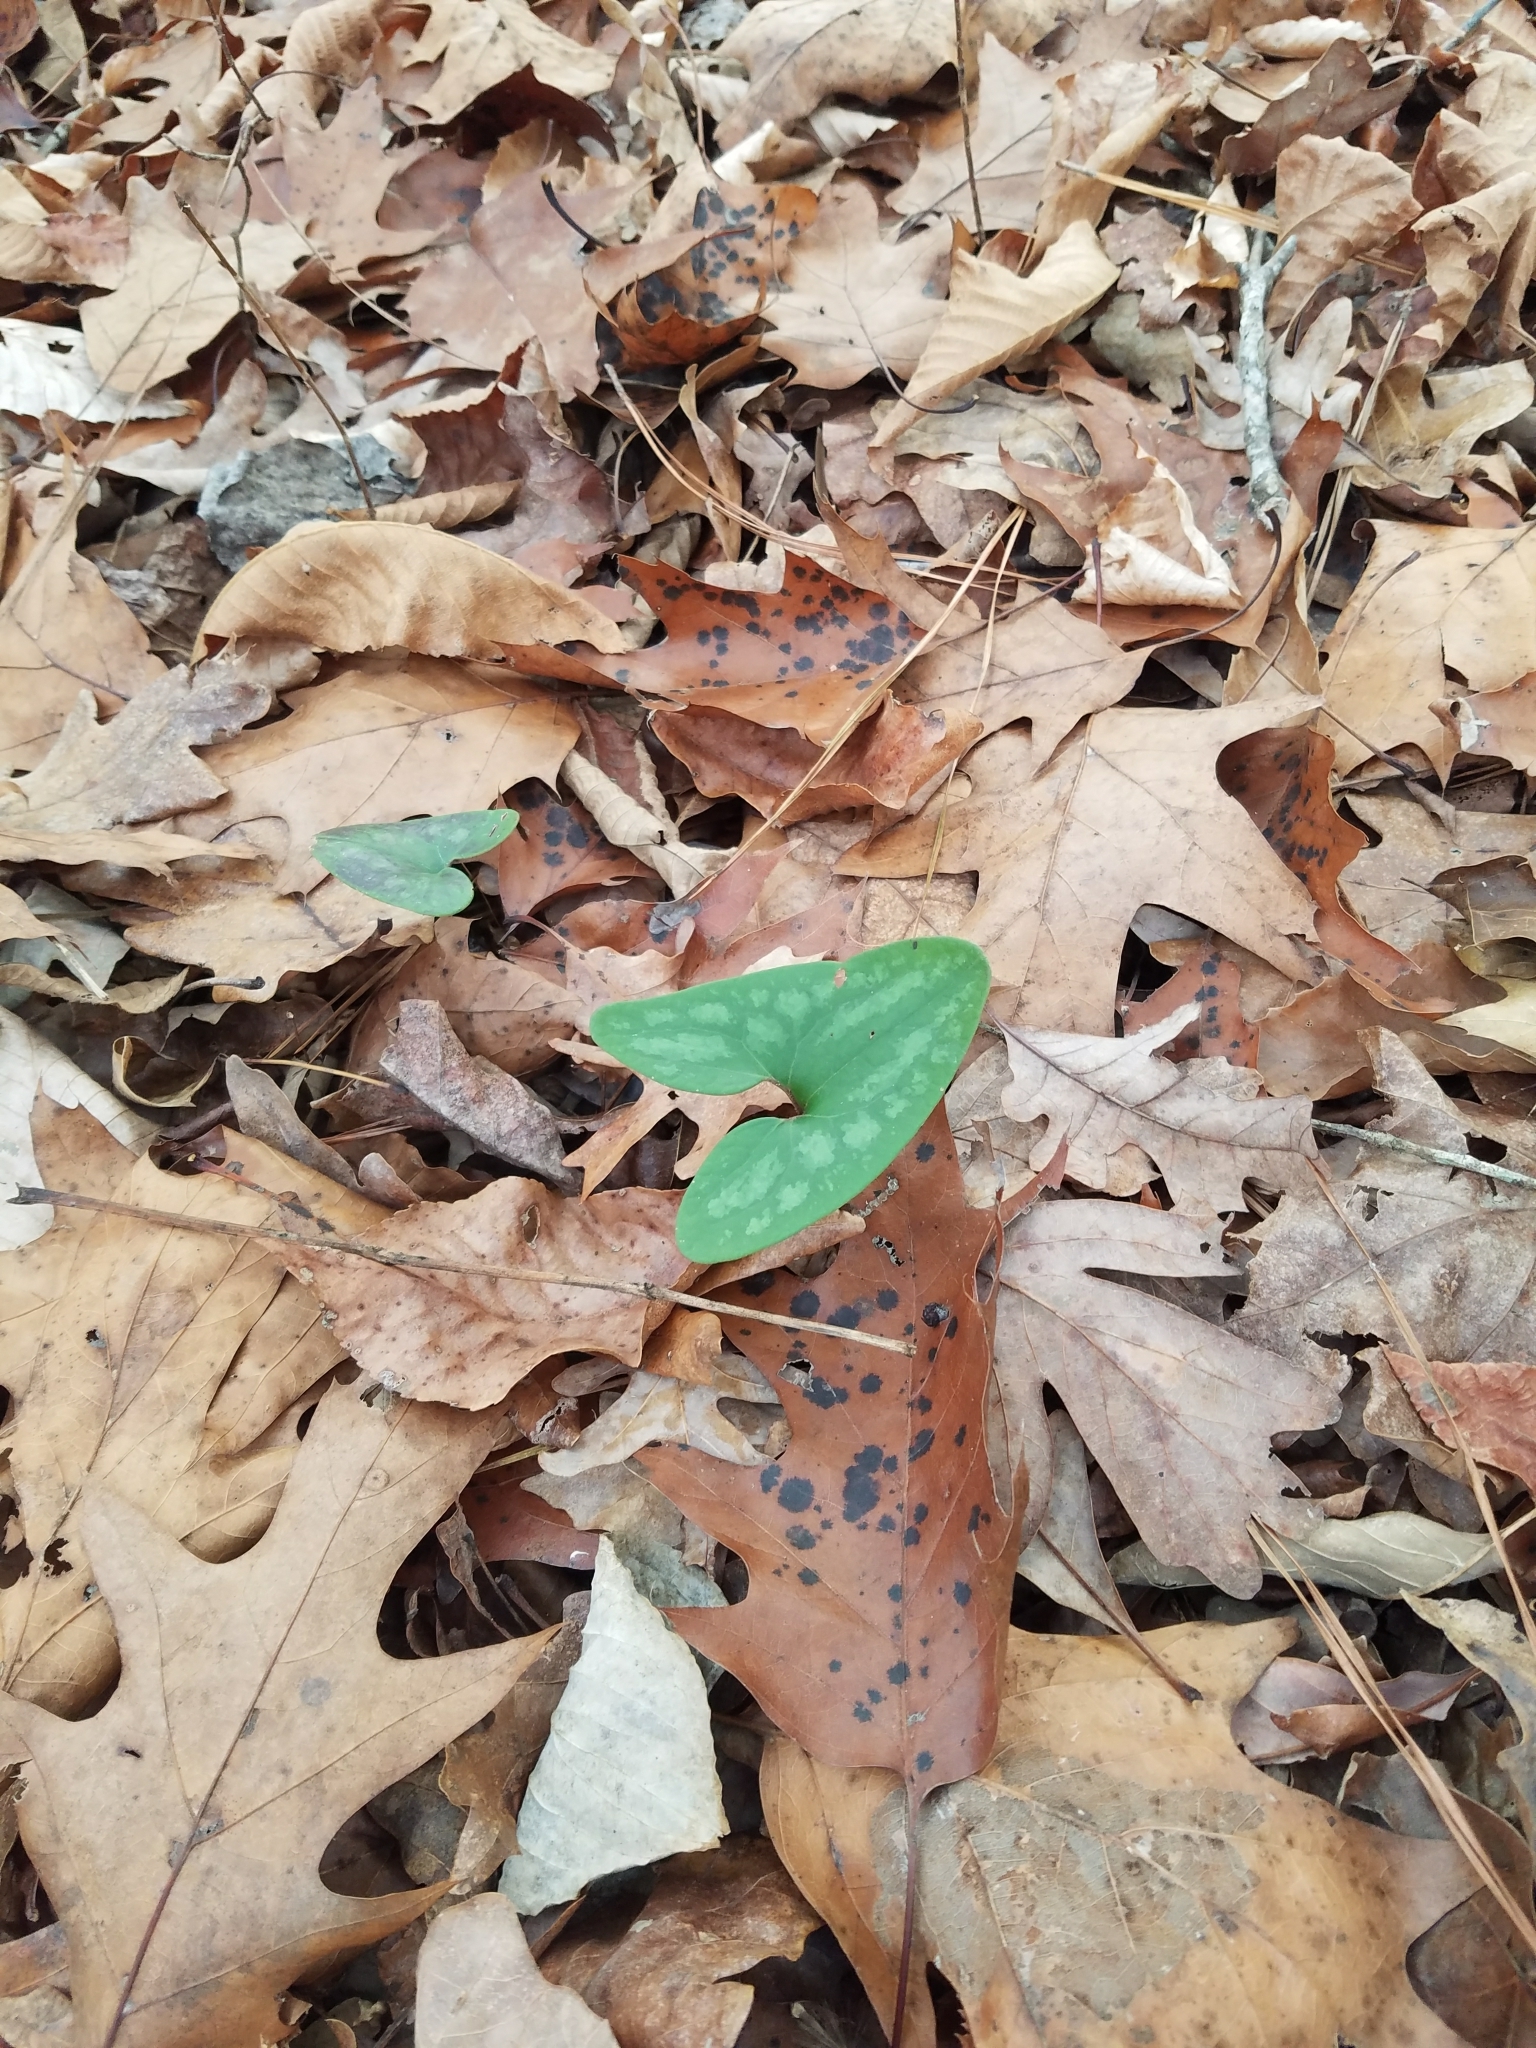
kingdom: Plantae
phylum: Tracheophyta
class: Magnoliopsida
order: Piperales
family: Aristolochiaceae
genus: Hexastylis
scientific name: Hexastylis arifolia
